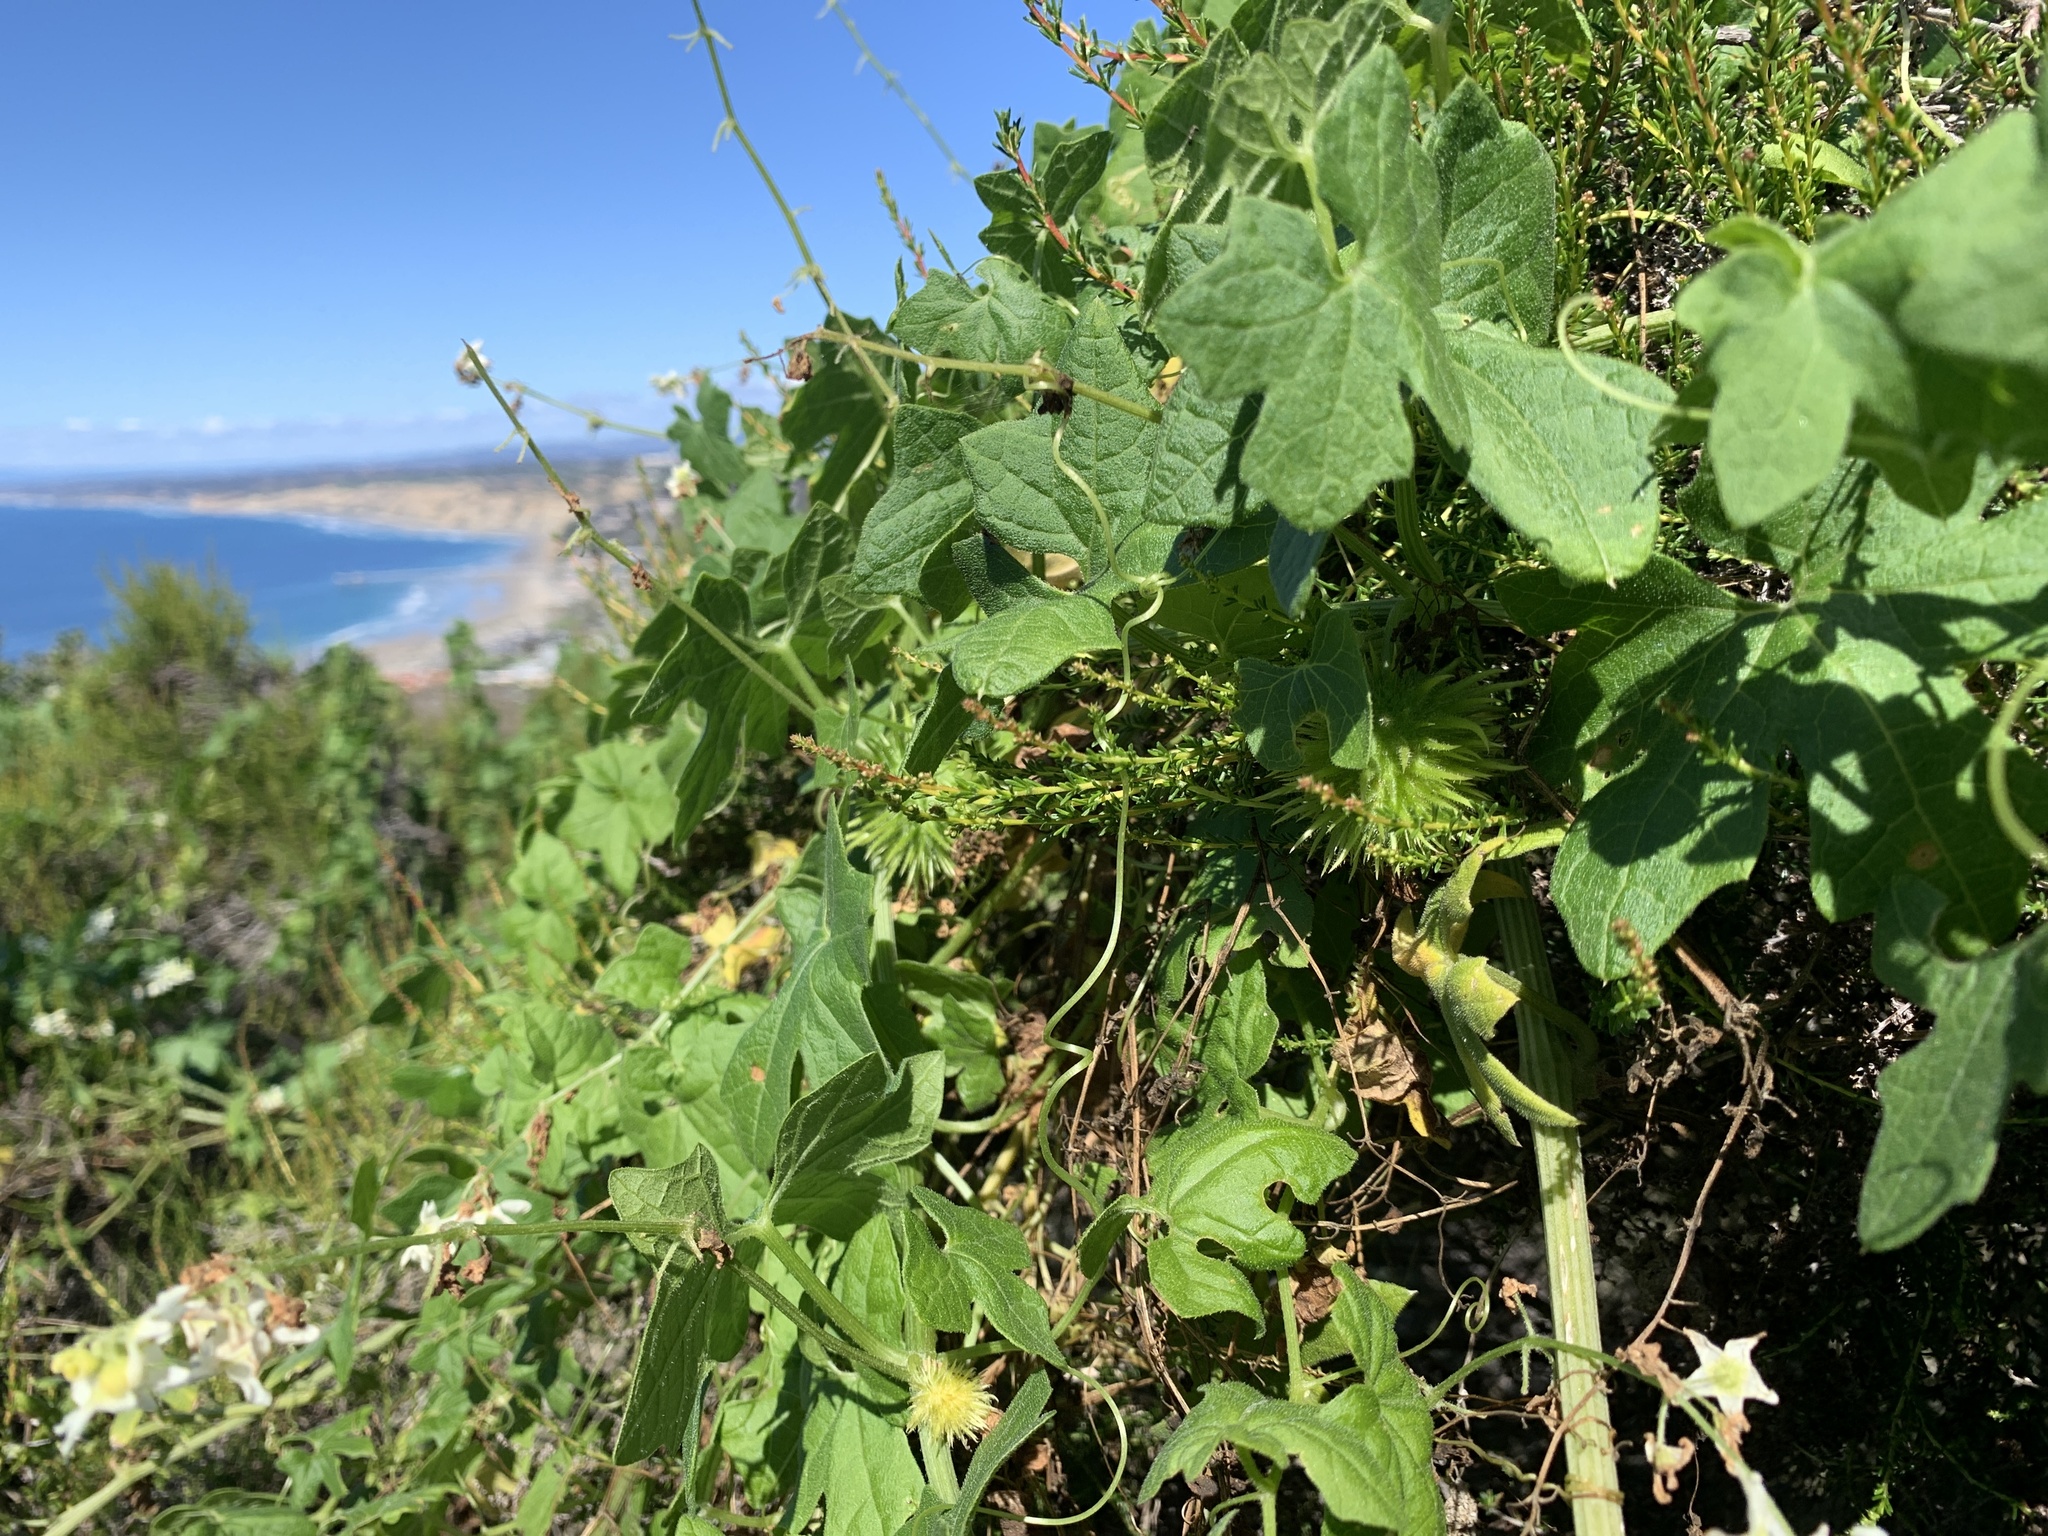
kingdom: Plantae
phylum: Tracheophyta
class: Magnoliopsida
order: Cucurbitales
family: Cucurbitaceae
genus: Marah
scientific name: Marah macrocarpa
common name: Cucamonga manroot
